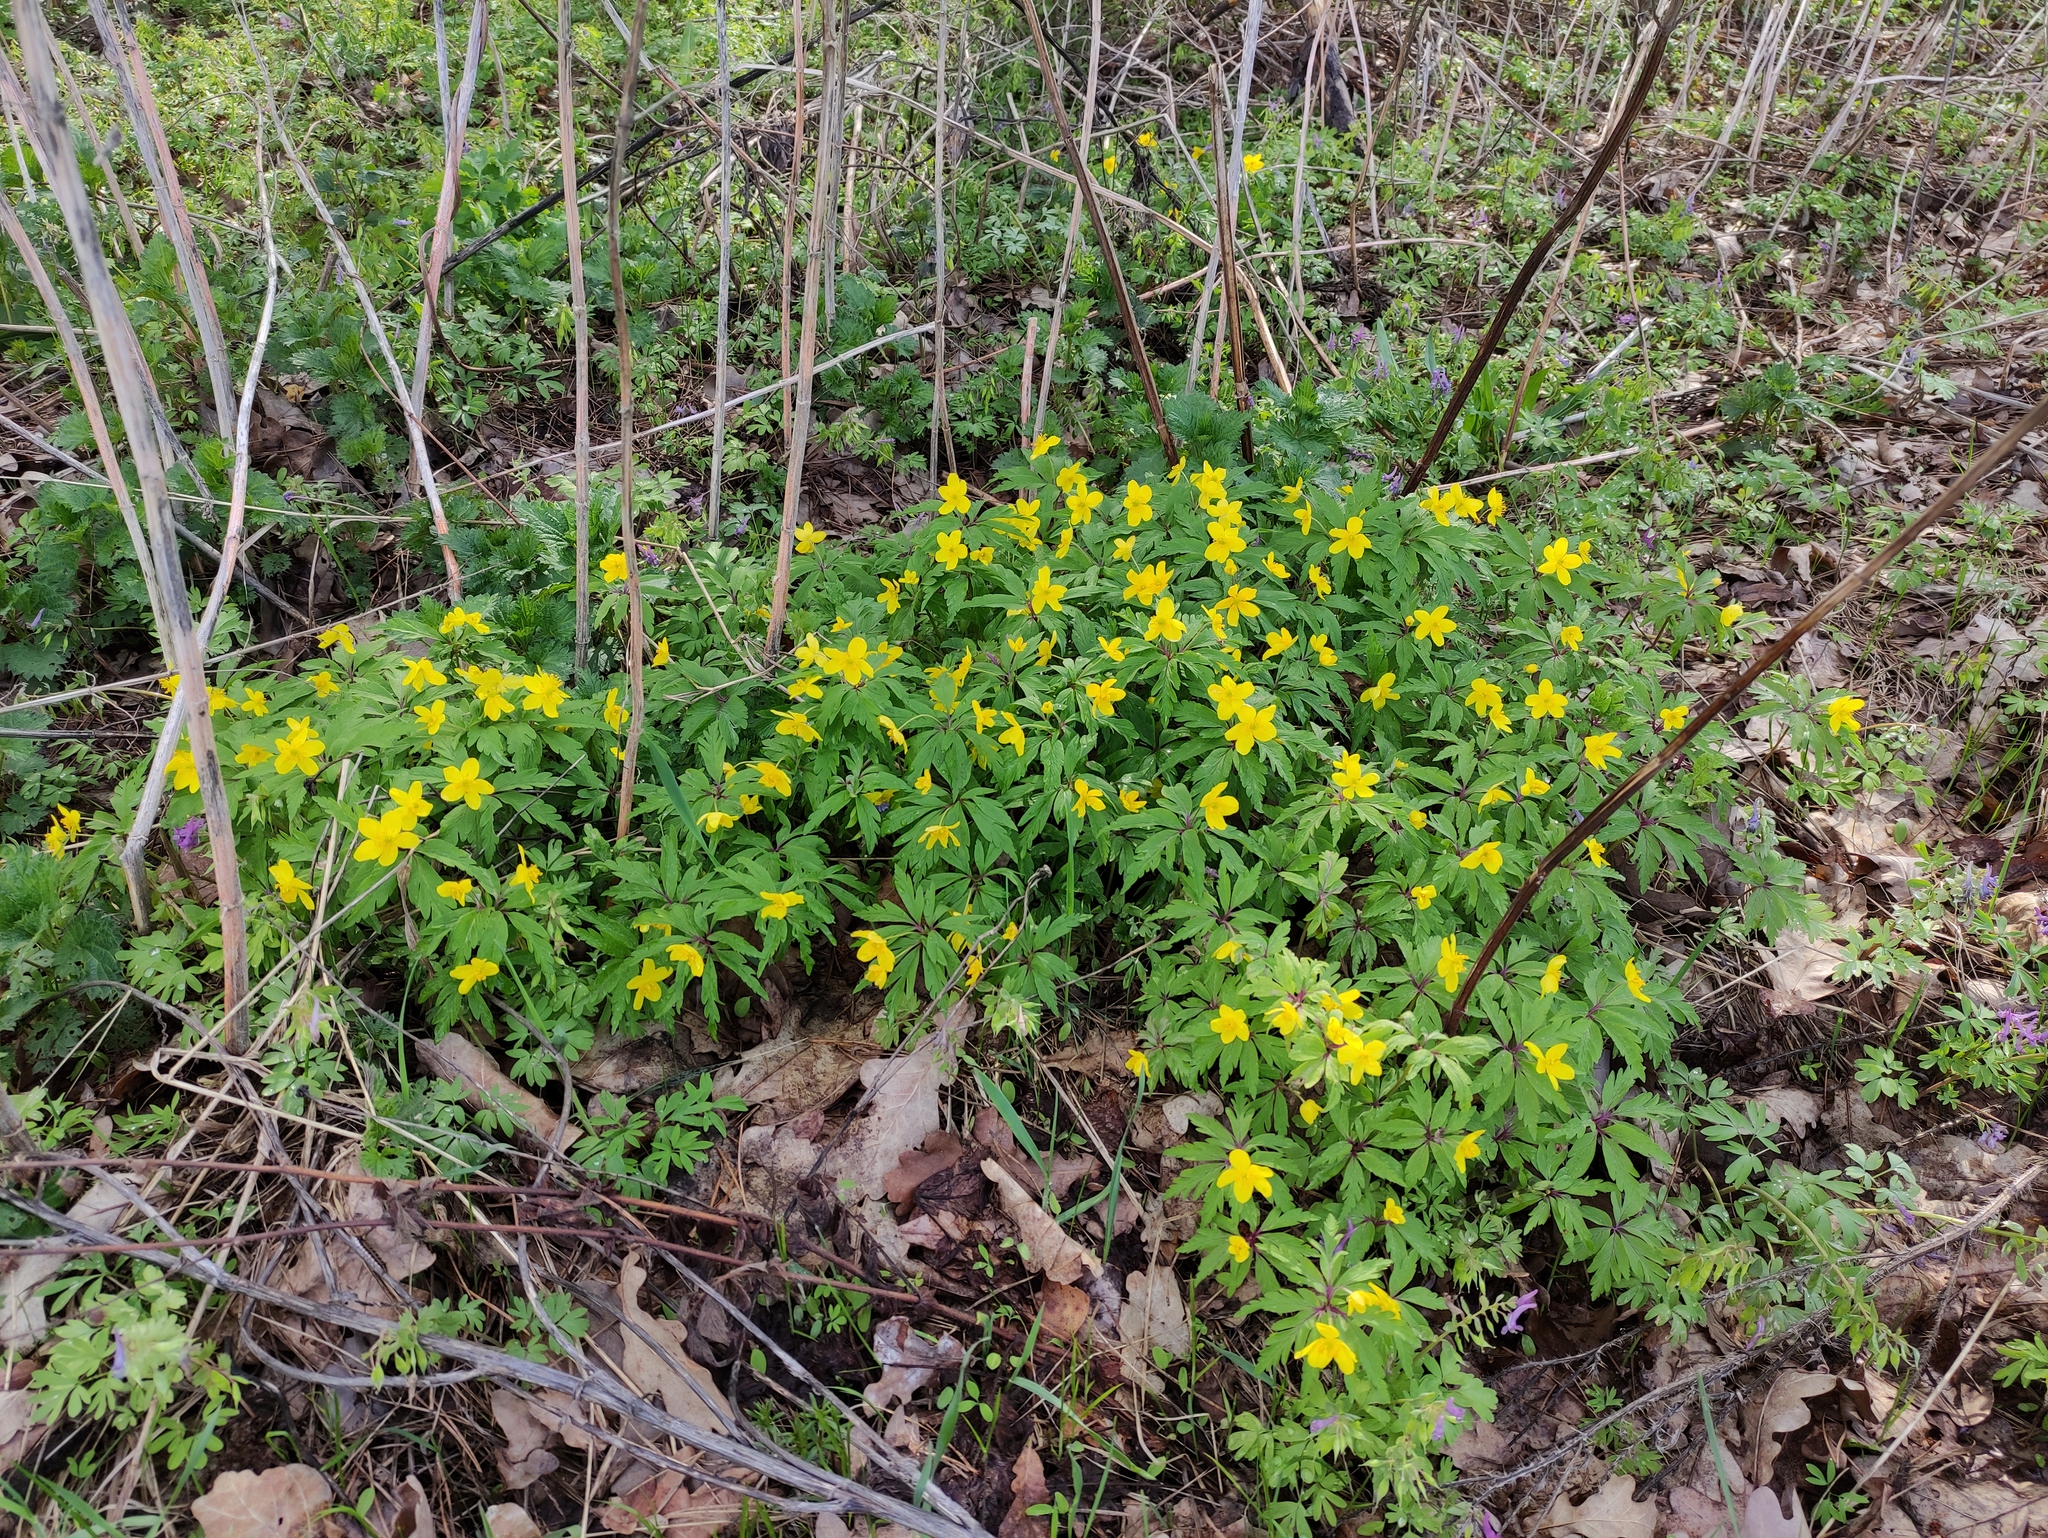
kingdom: Plantae
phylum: Tracheophyta
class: Magnoliopsida
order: Ranunculales
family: Ranunculaceae
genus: Anemone
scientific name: Anemone ranunculoides
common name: Yellow anemone
